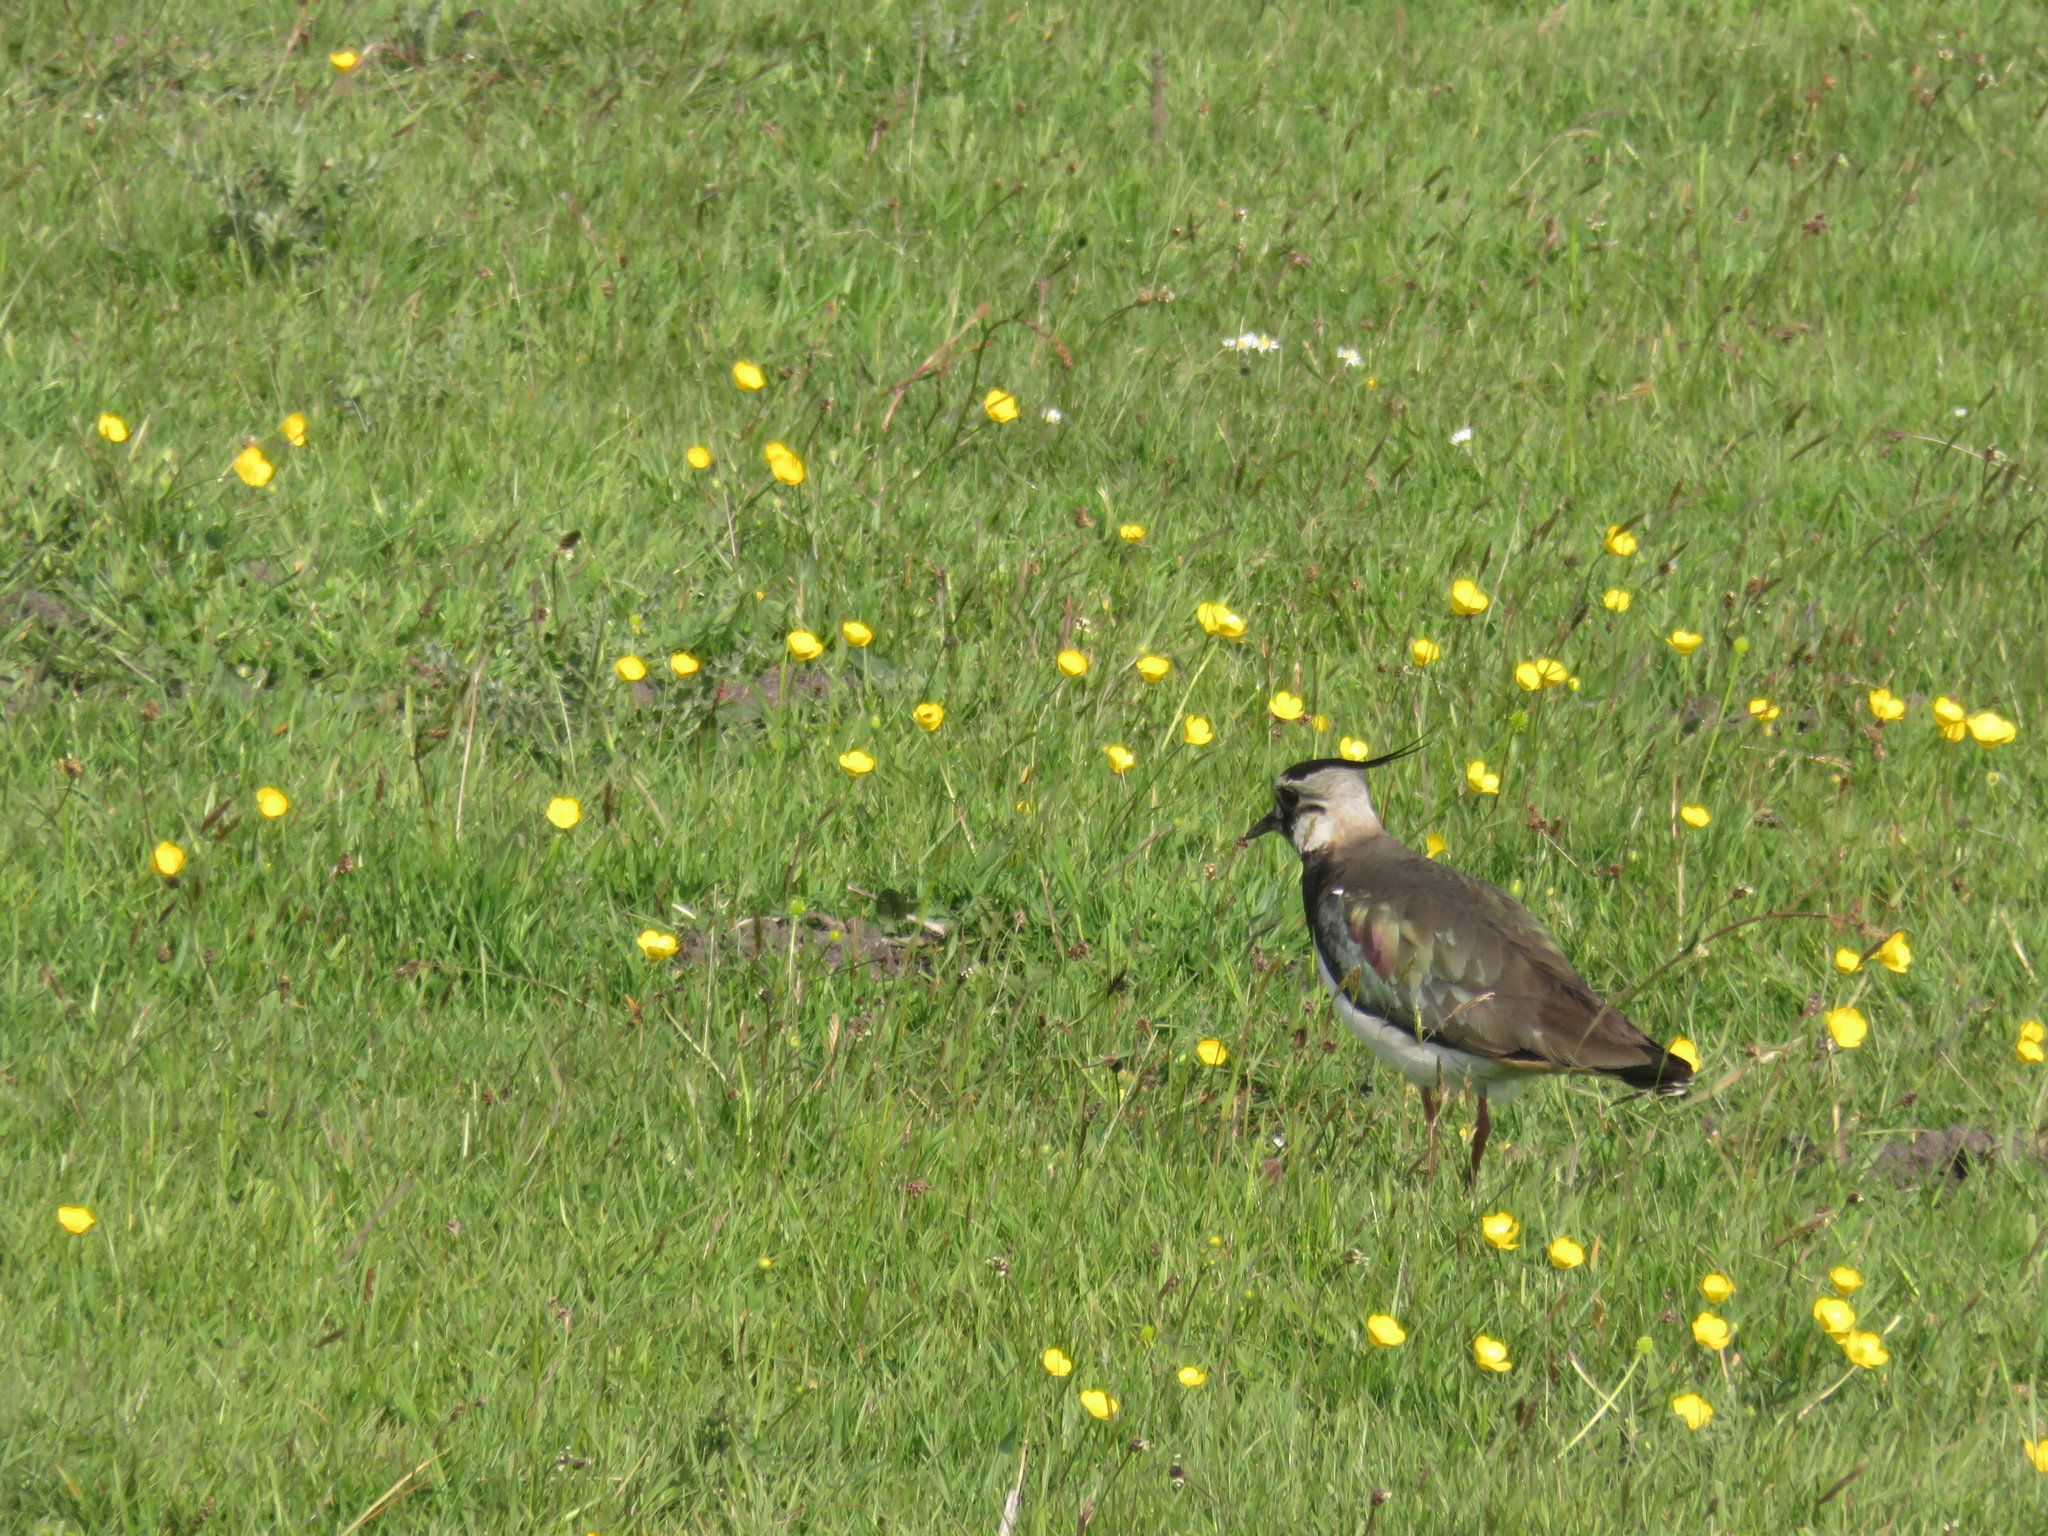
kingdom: Animalia
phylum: Chordata
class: Aves
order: Charadriiformes
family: Charadriidae
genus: Vanellus
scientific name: Vanellus vanellus
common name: Northern lapwing
